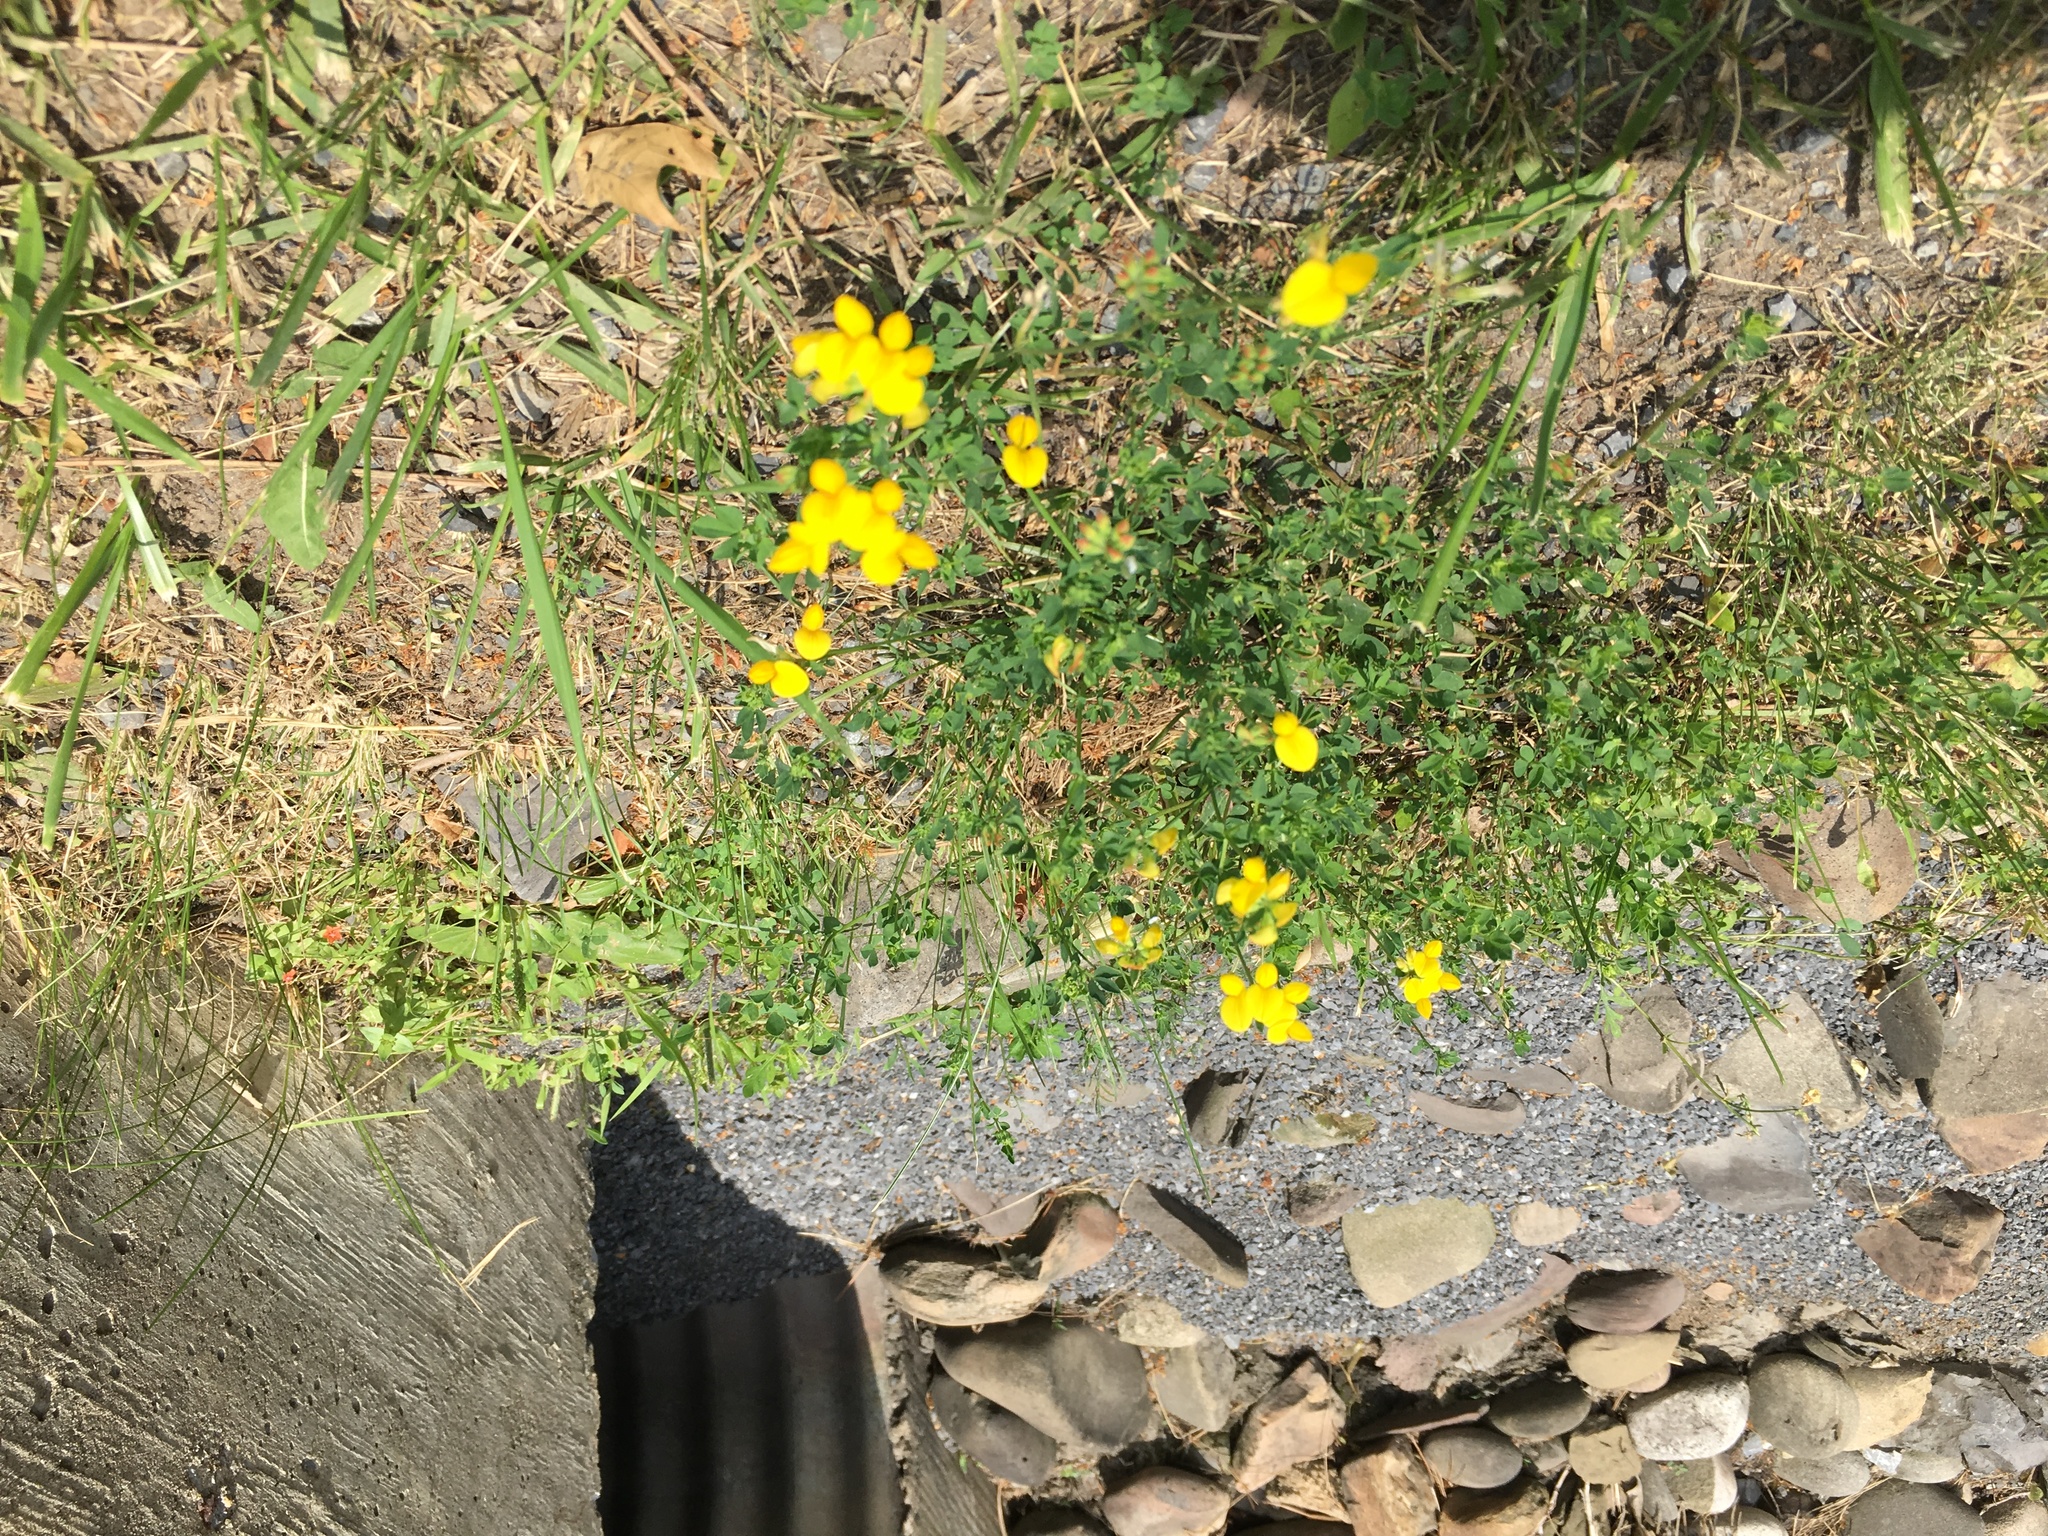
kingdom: Plantae
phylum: Tracheophyta
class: Magnoliopsida
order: Fabales
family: Fabaceae
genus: Lotus
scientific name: Lotus corniculatus
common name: Common bird's-foot-trefoil
